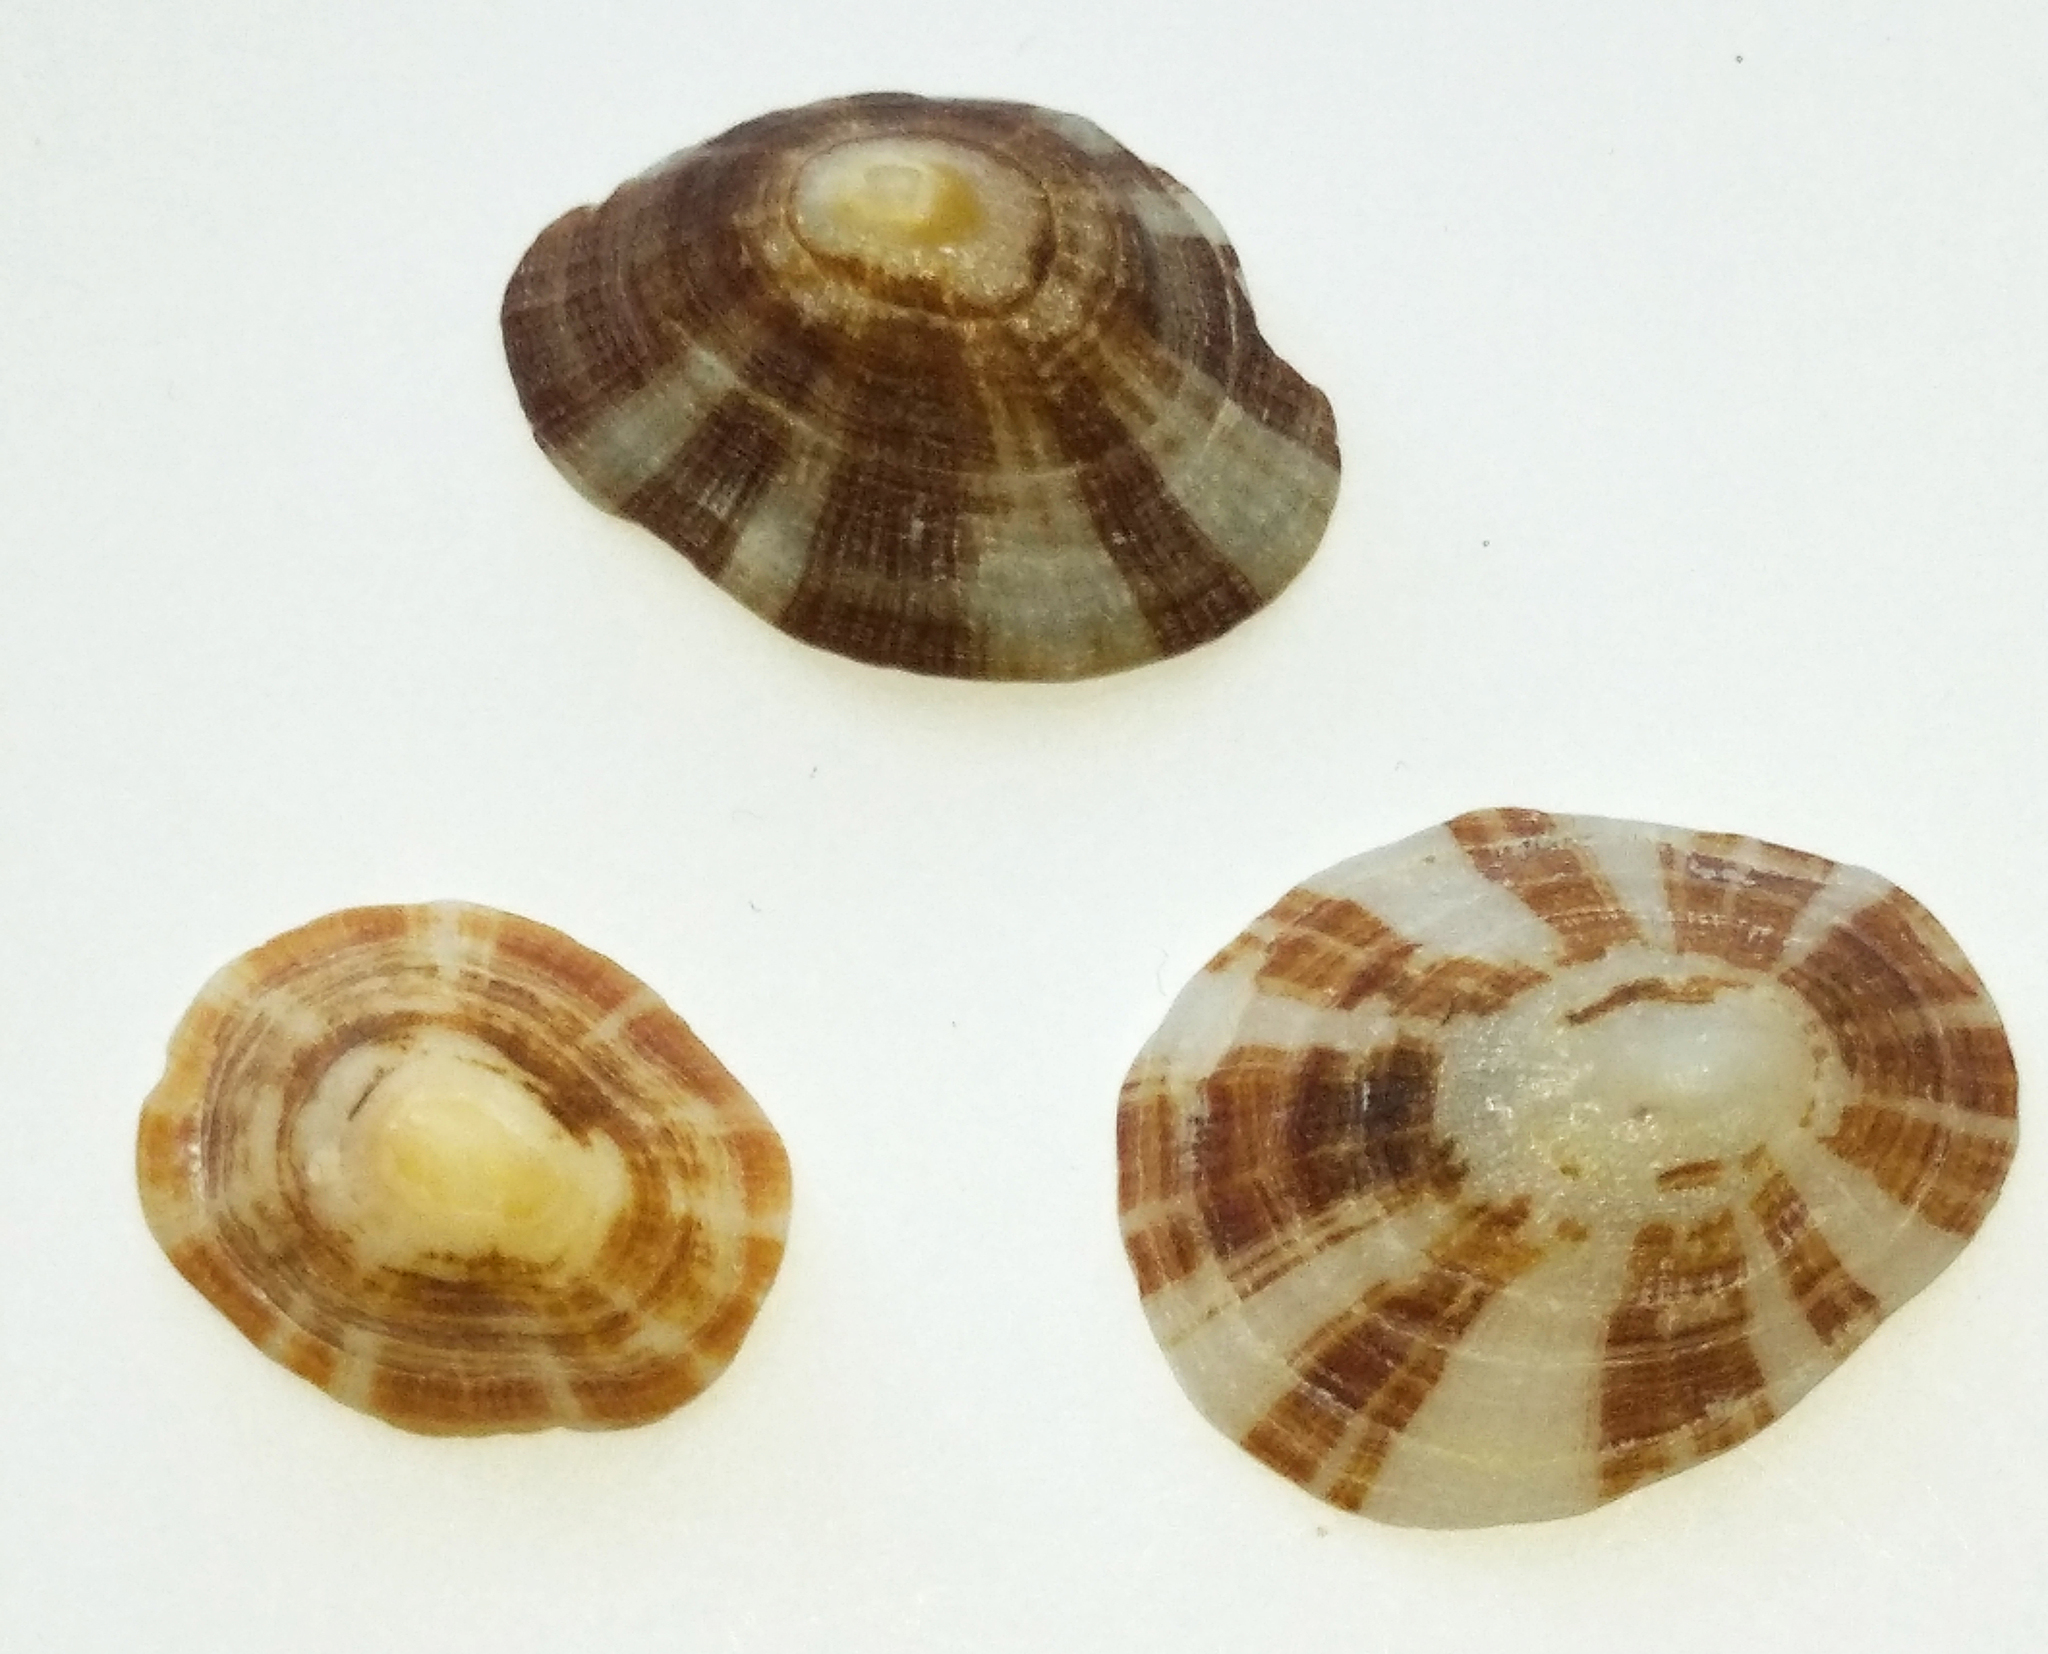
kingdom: Animalia
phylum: Mollusca
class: Gastropoda
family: Patellidae
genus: Patella
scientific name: Patella ulyssiponensis
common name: China limpet
